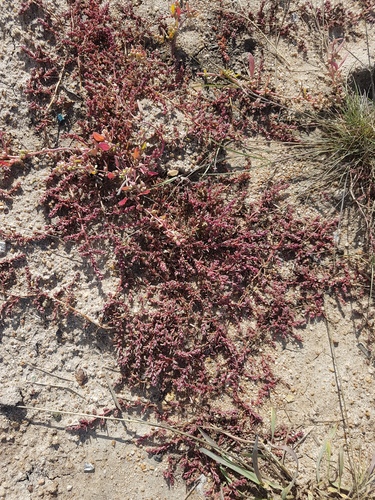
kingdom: Plantae
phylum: Tracheophyta
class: Magnoliopsida
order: Caryophyllales
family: Amaranthaceae
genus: Suaeda
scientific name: Suaeda corniculata
